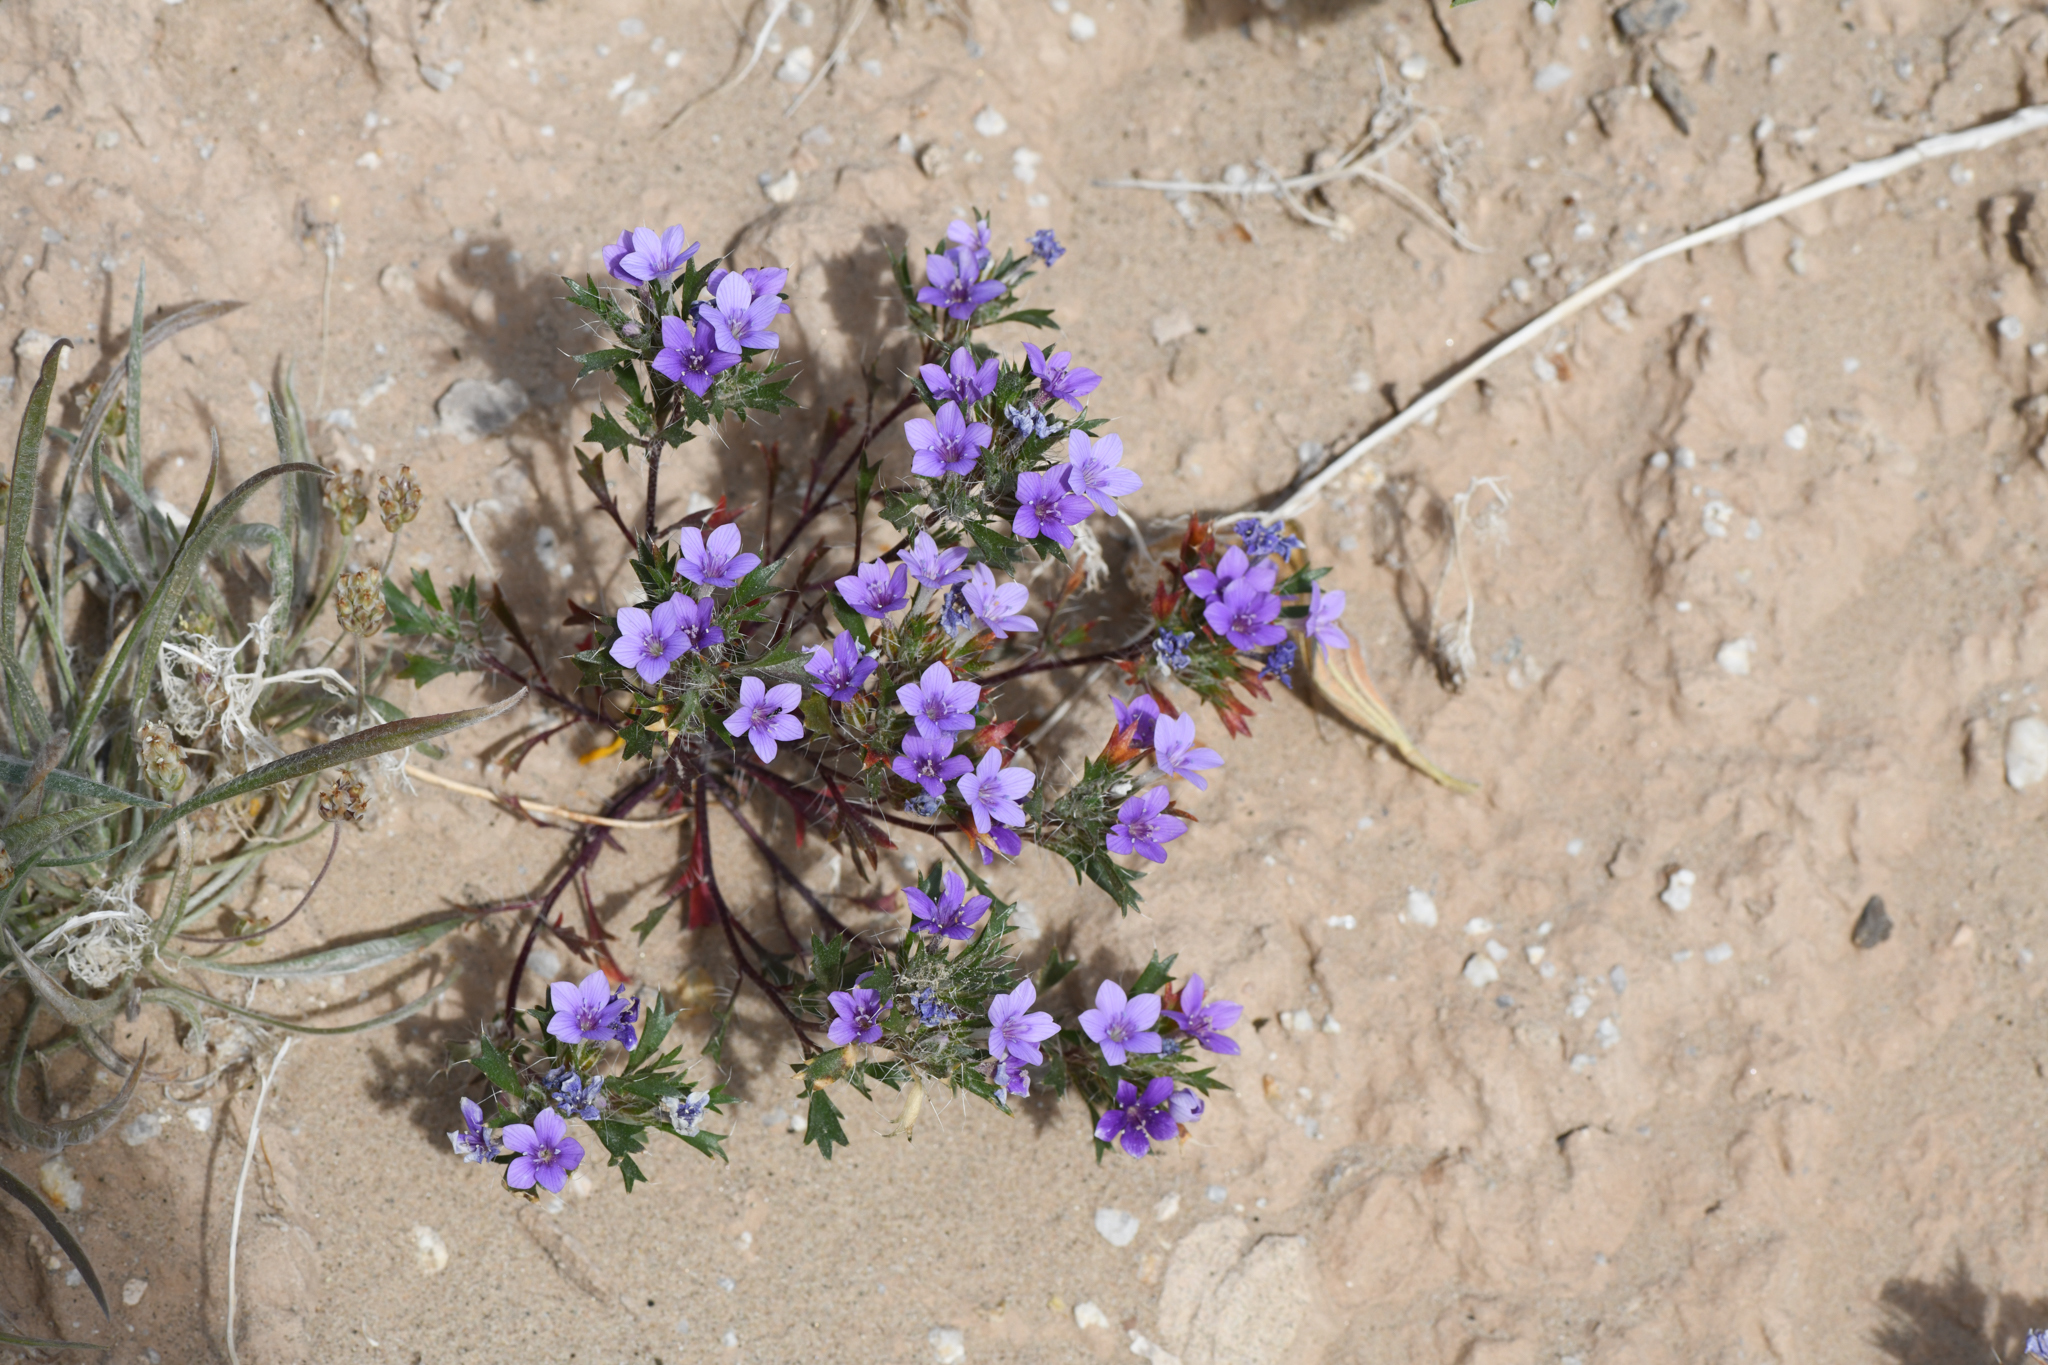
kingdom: Plantae
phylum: Tracheophyta
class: Magnoliopsida
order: Ericales
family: Polemoniaceae
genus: Langloisia
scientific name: Langloisia setosissima
